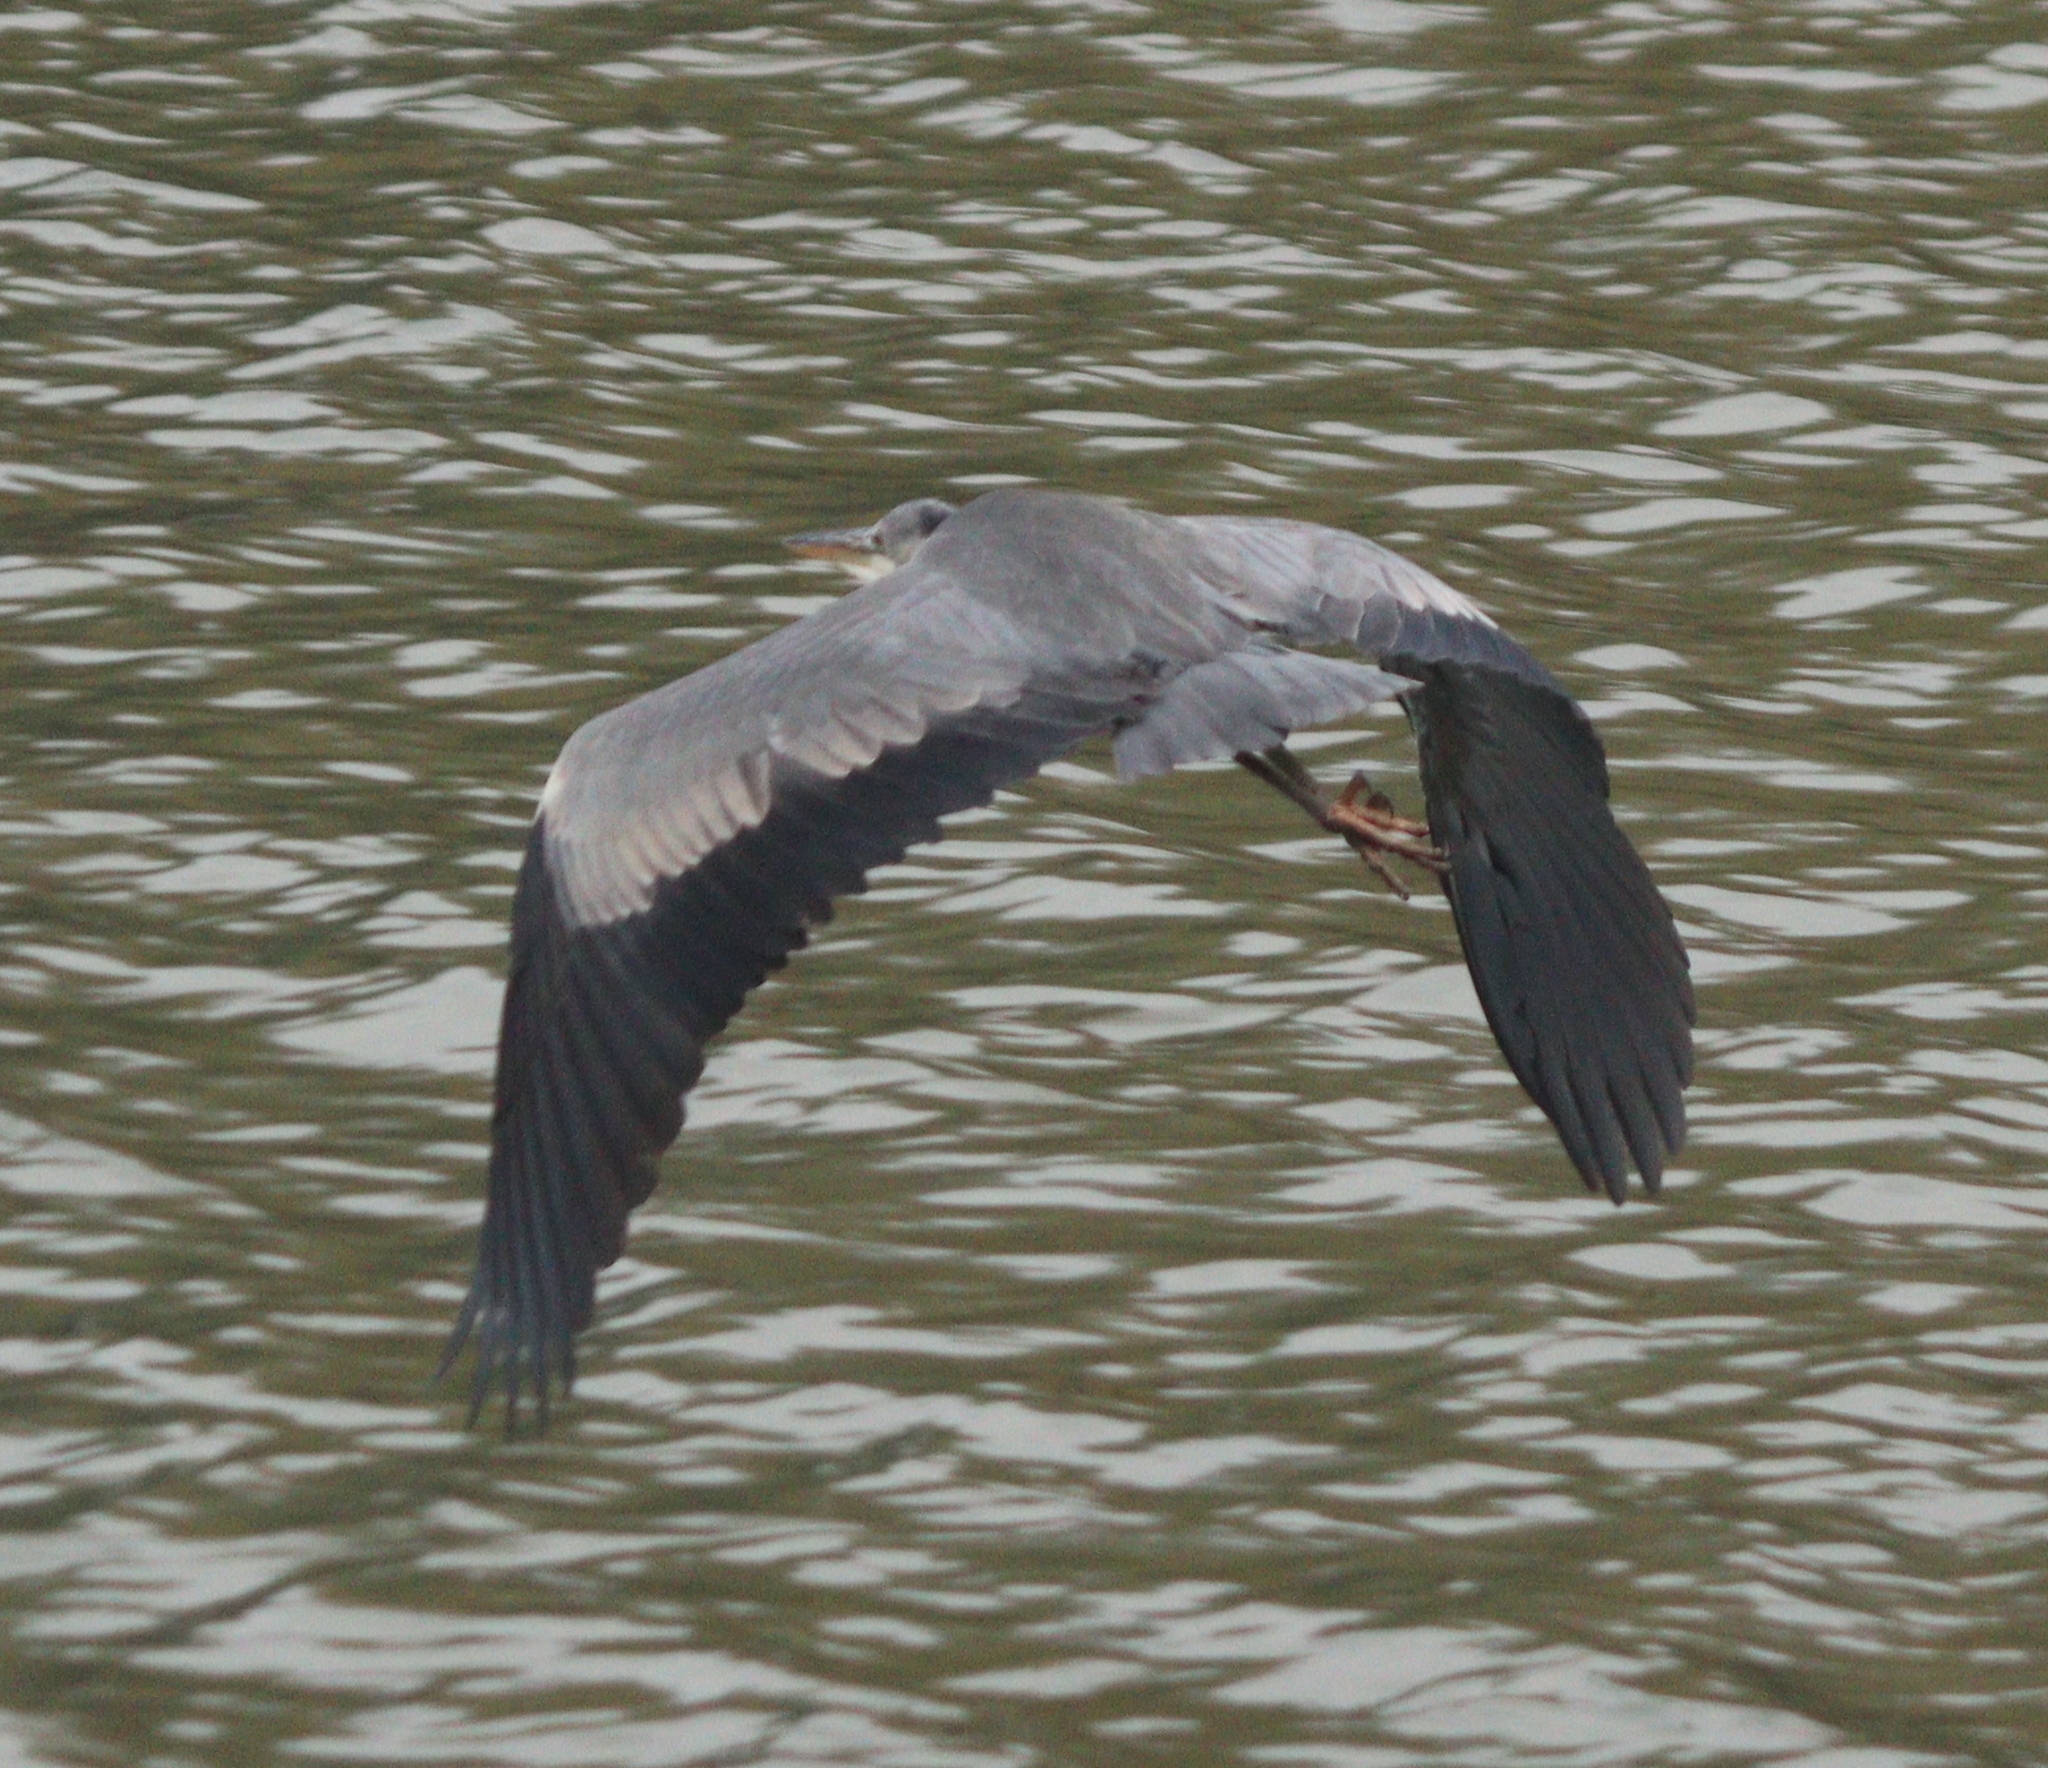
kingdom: Animalia
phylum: Chordata
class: Aves
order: Pelecaniformes
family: Ardeidae
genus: Ardea
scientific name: Ardea cinerea
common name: Grey heron
